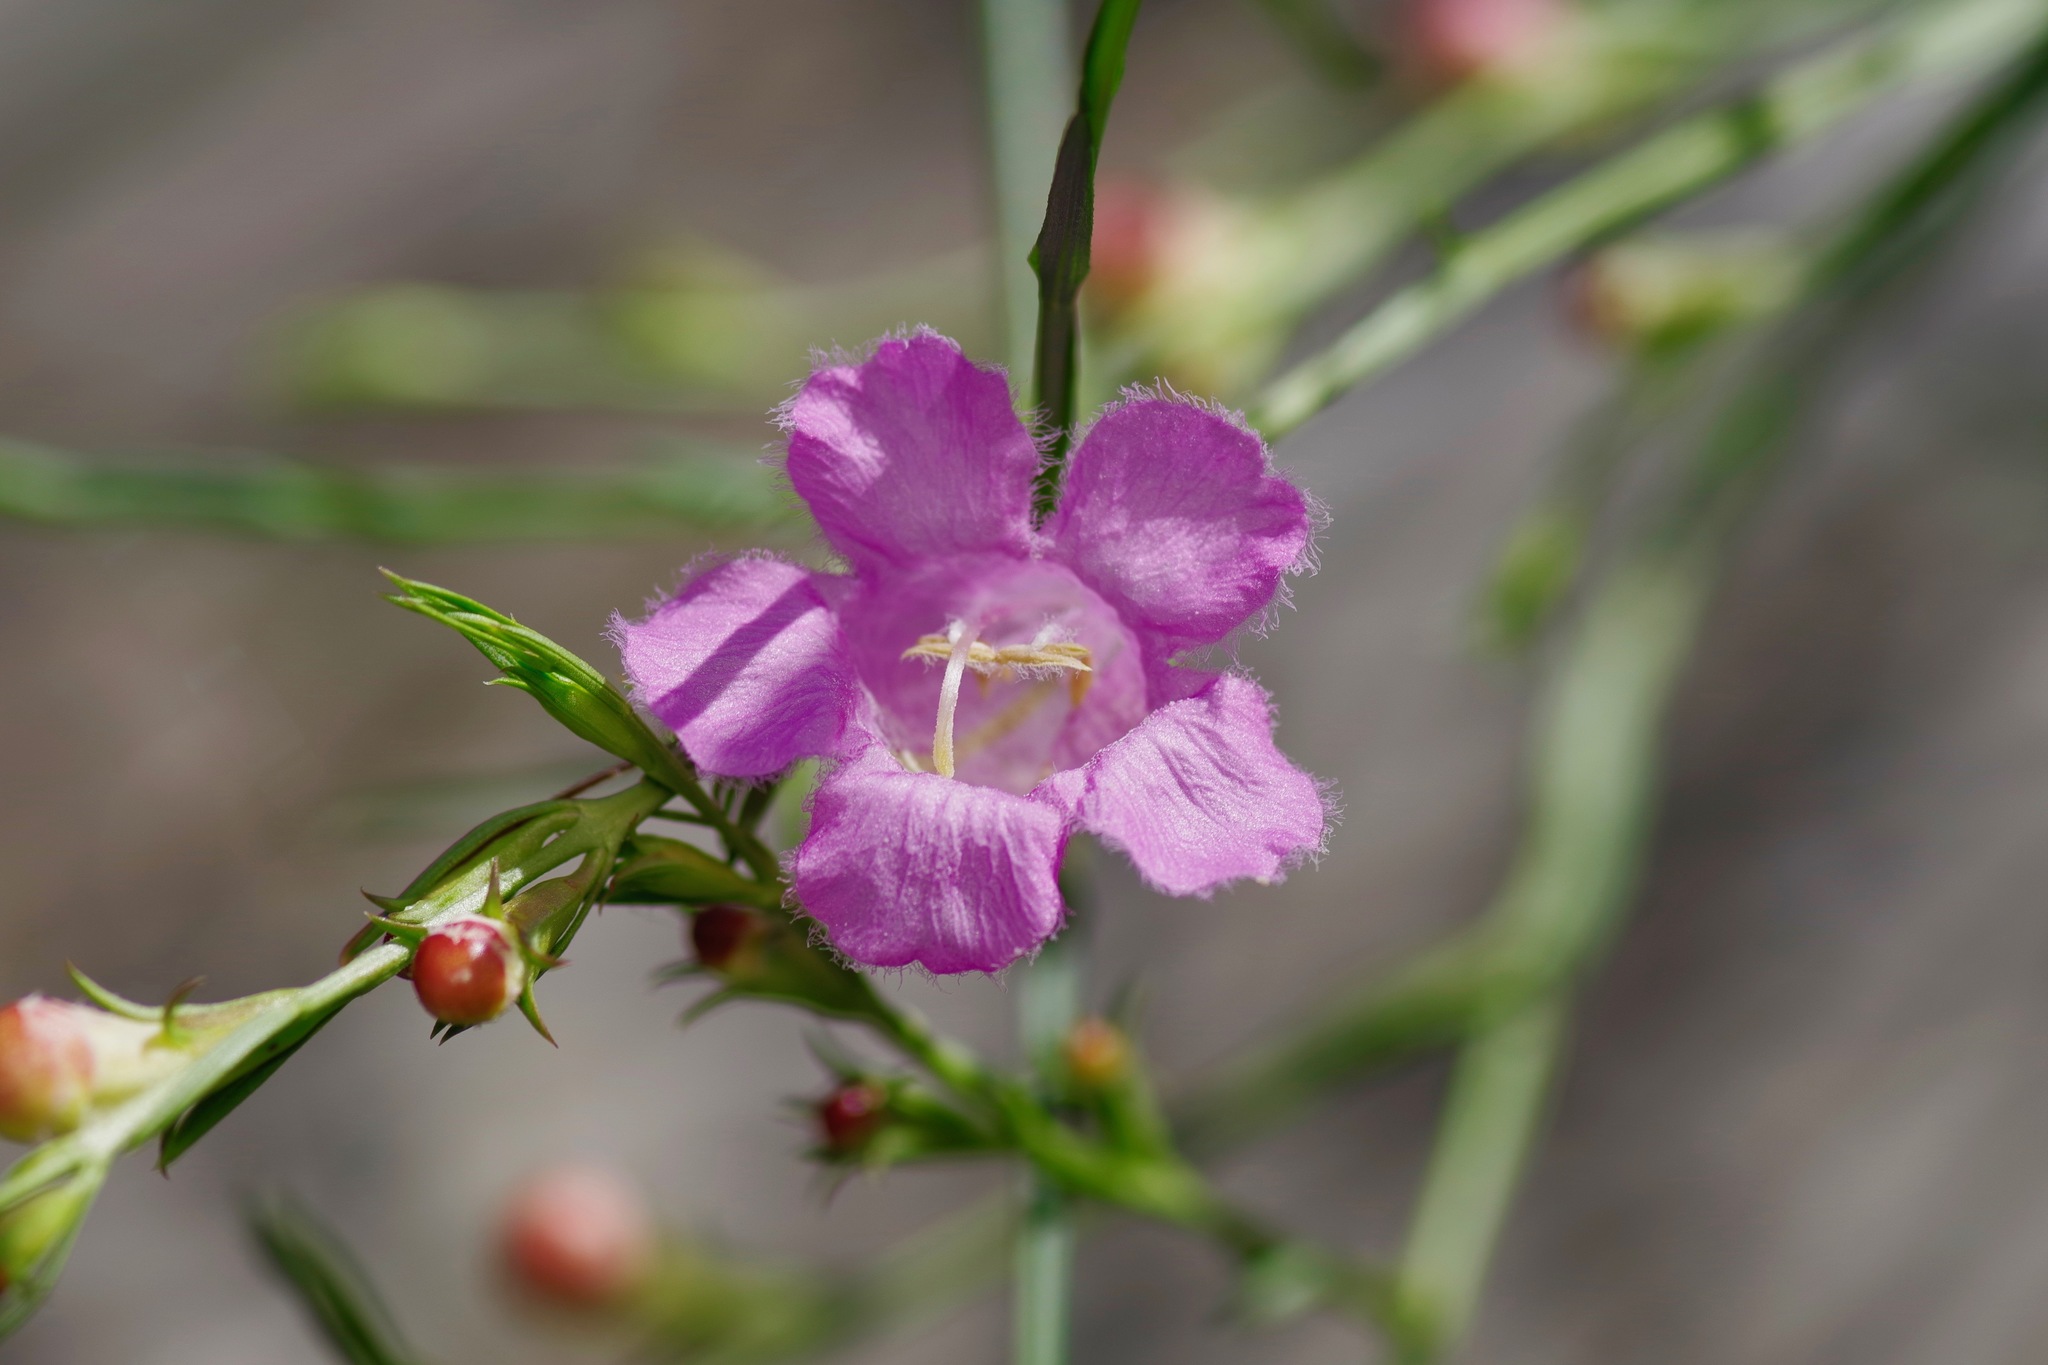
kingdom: Plantae
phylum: Tracheophyta
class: Magnoliopsida
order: Lamiales
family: Orobanchaceae
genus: Agalinis
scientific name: Agalinis heterophylla
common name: Prairie agalinis
